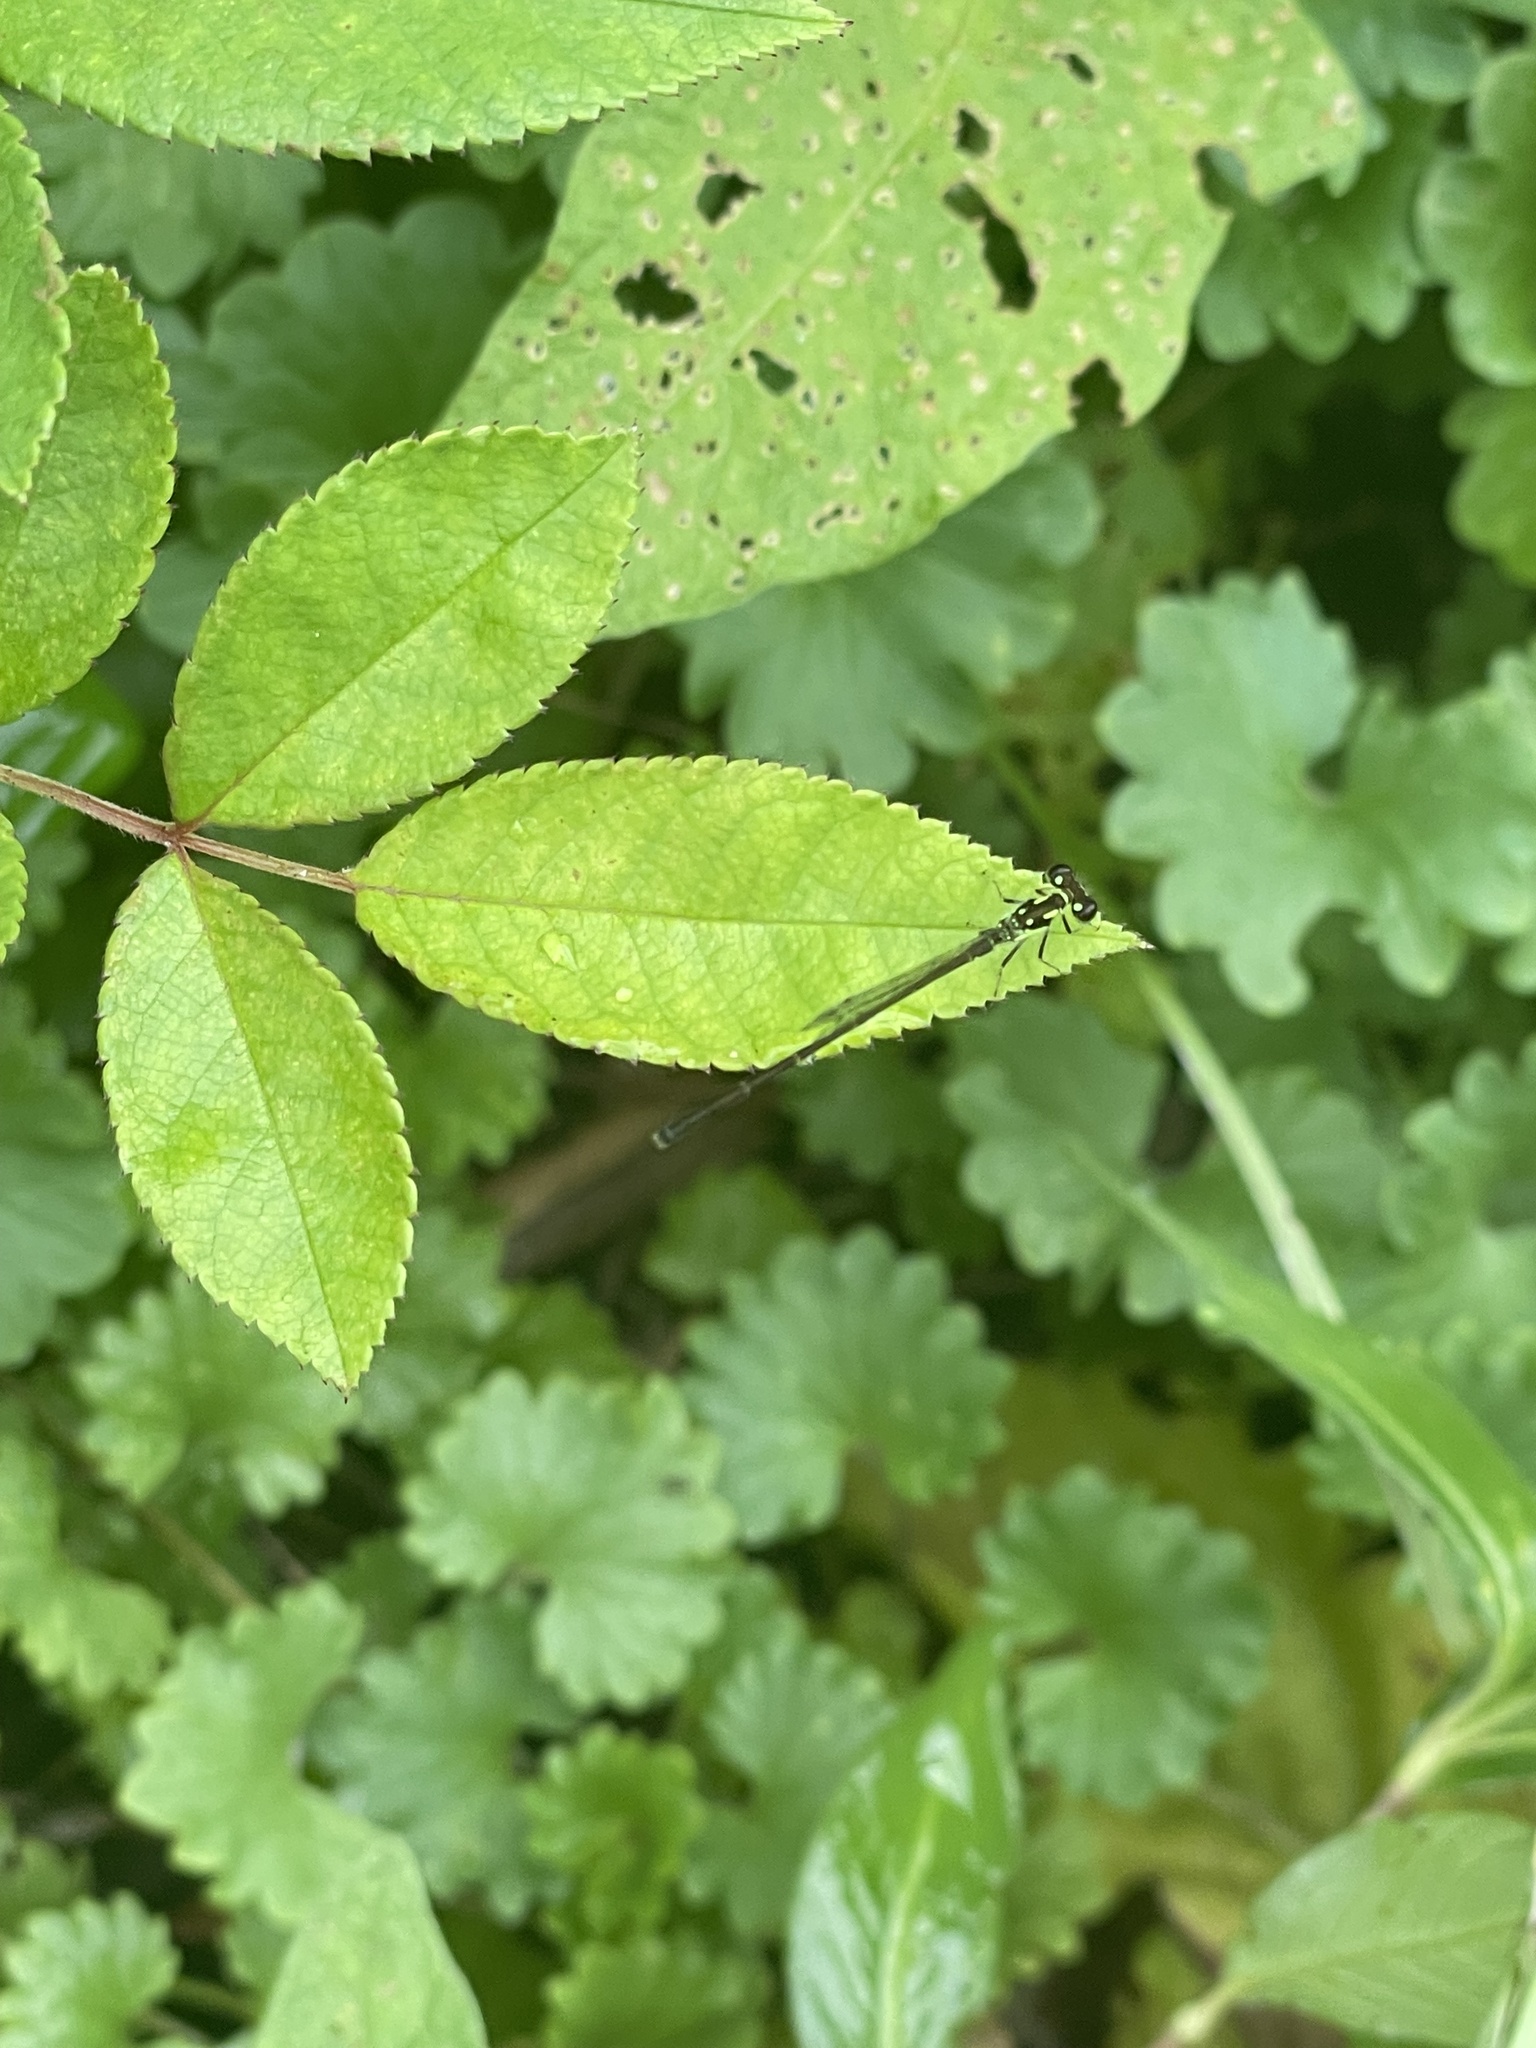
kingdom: Animalia
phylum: Arthropoda
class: Insecta
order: Odonata
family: Coenagrionidae
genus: Ischnura
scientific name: Ischnura posita
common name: Fragile forktail
